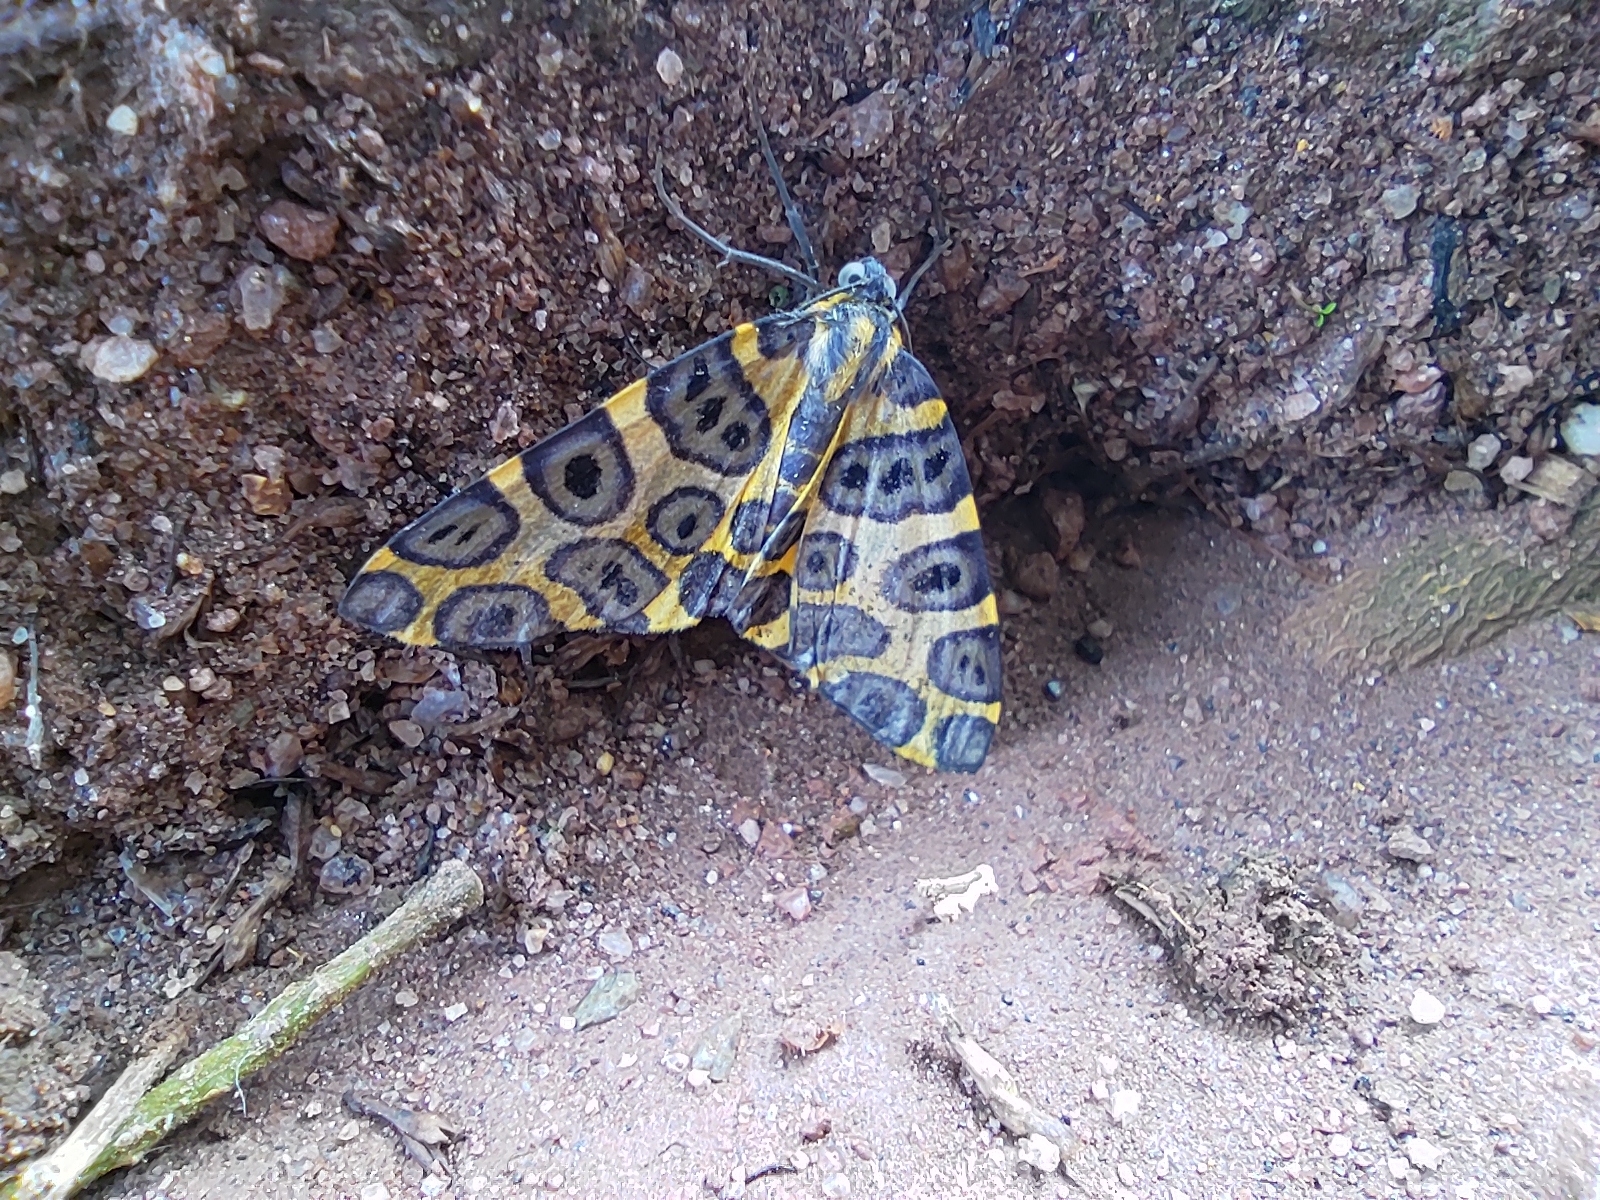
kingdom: Animalia
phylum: Arthropoda
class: Insecta
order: Lepidoptera
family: Geometridae
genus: Pantherodes
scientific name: Pantherodes unciaria
